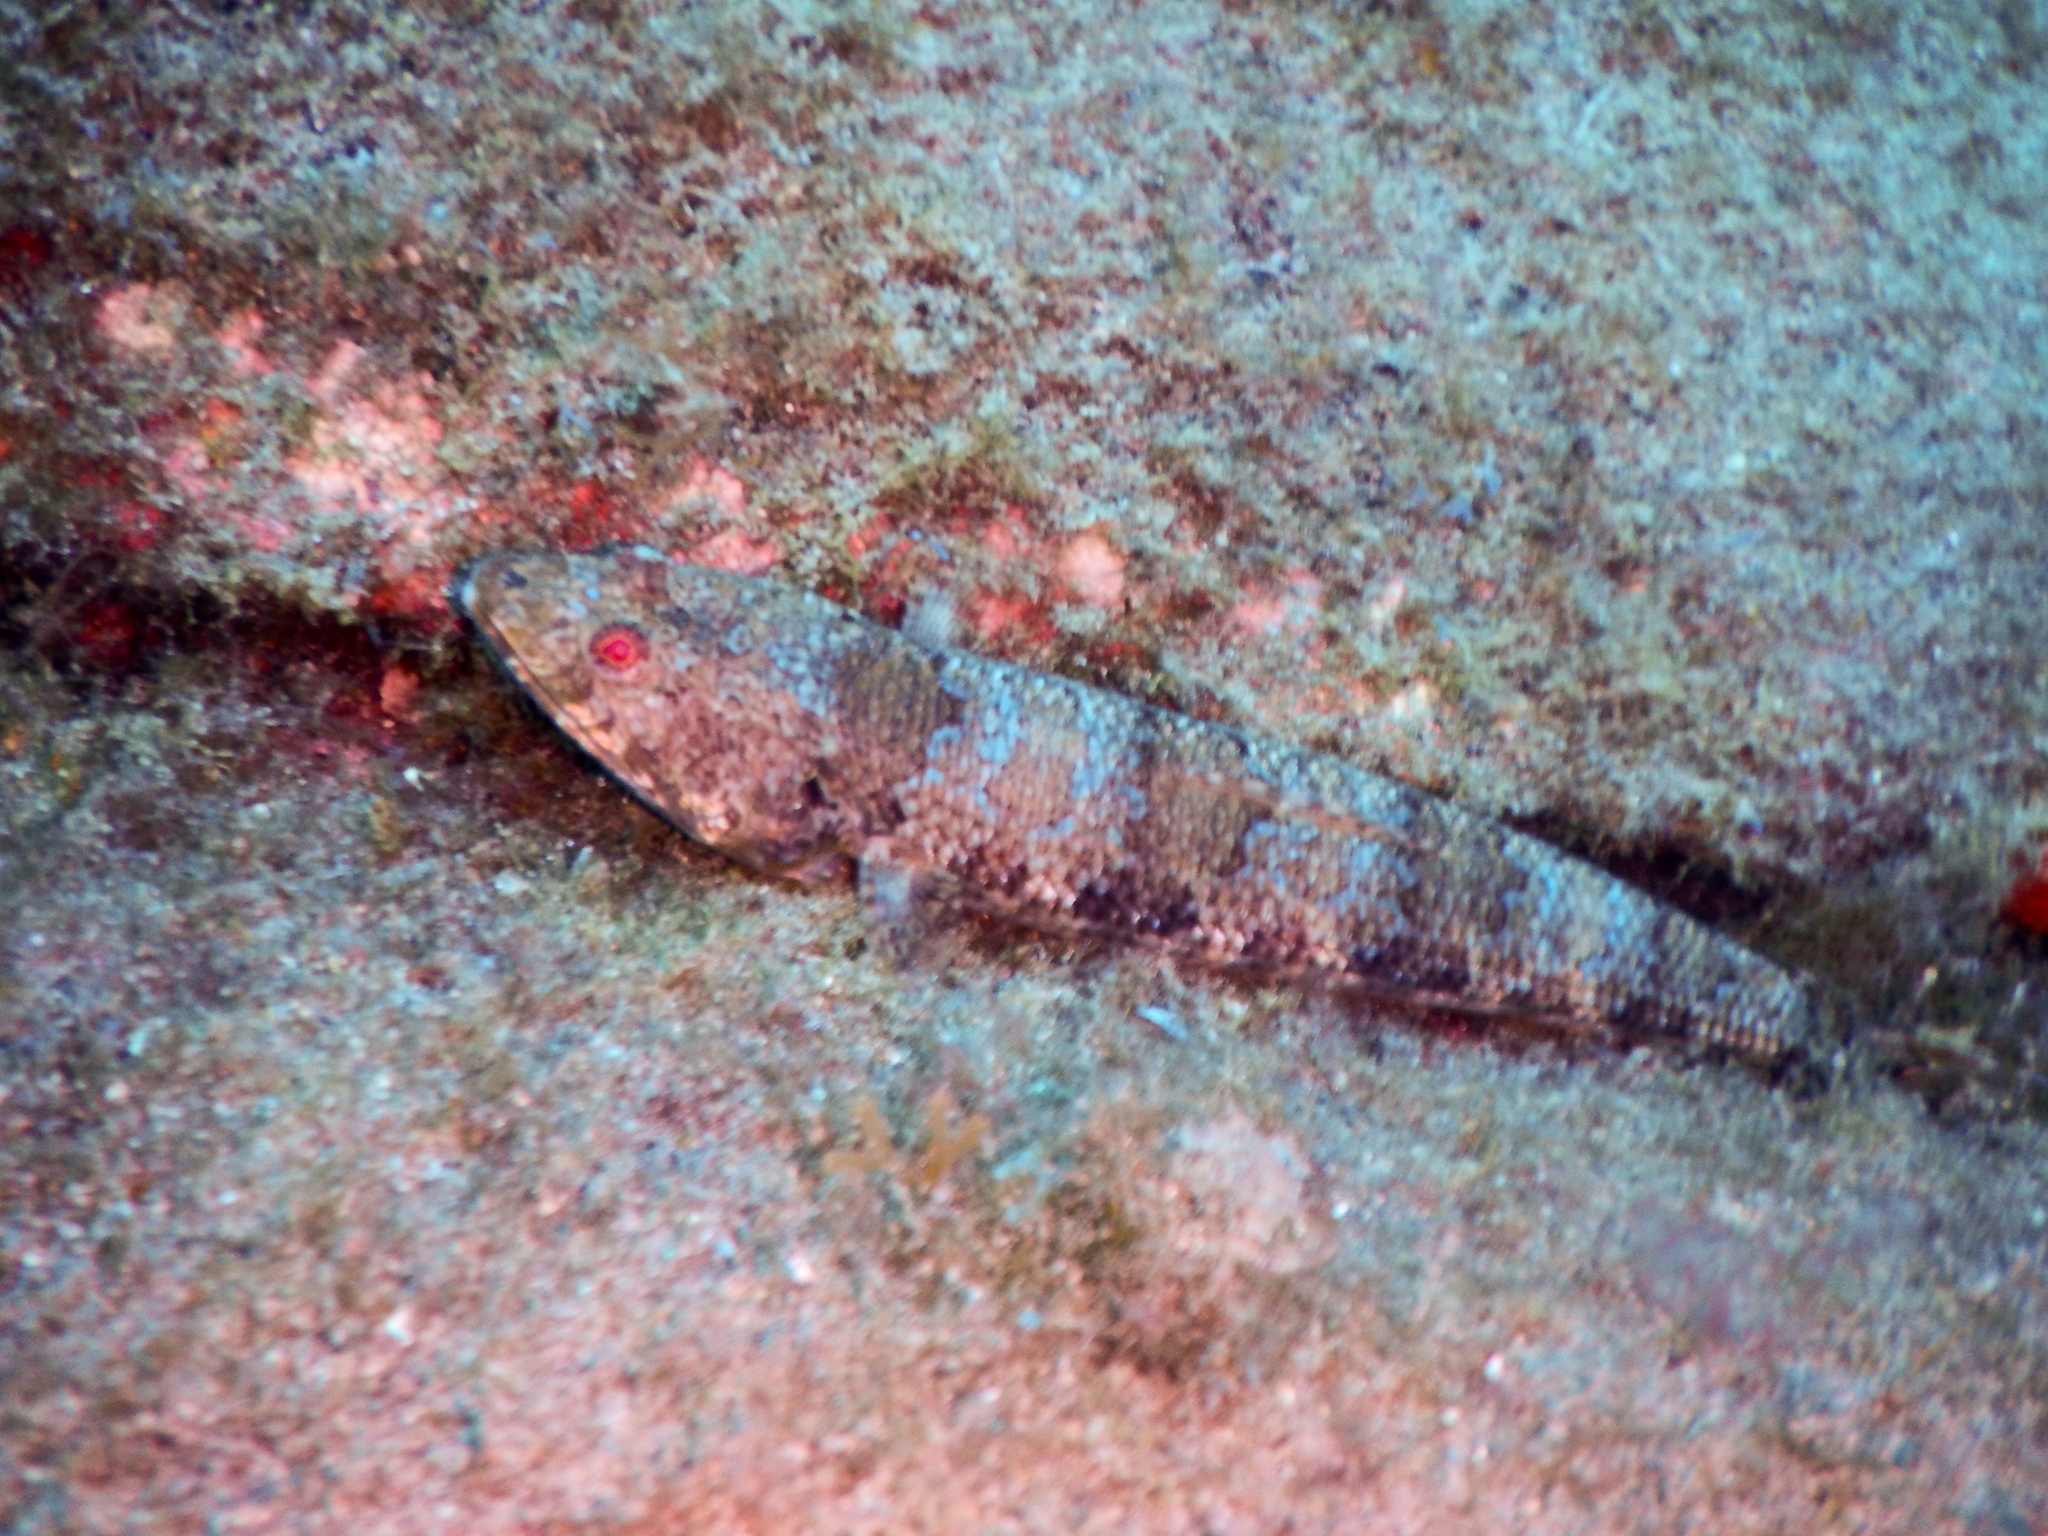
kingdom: Animalia
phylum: Chordata
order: Aulopiformes
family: Synodontidae
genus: Synodus
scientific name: Synodus synodus
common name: Red lizardfish
